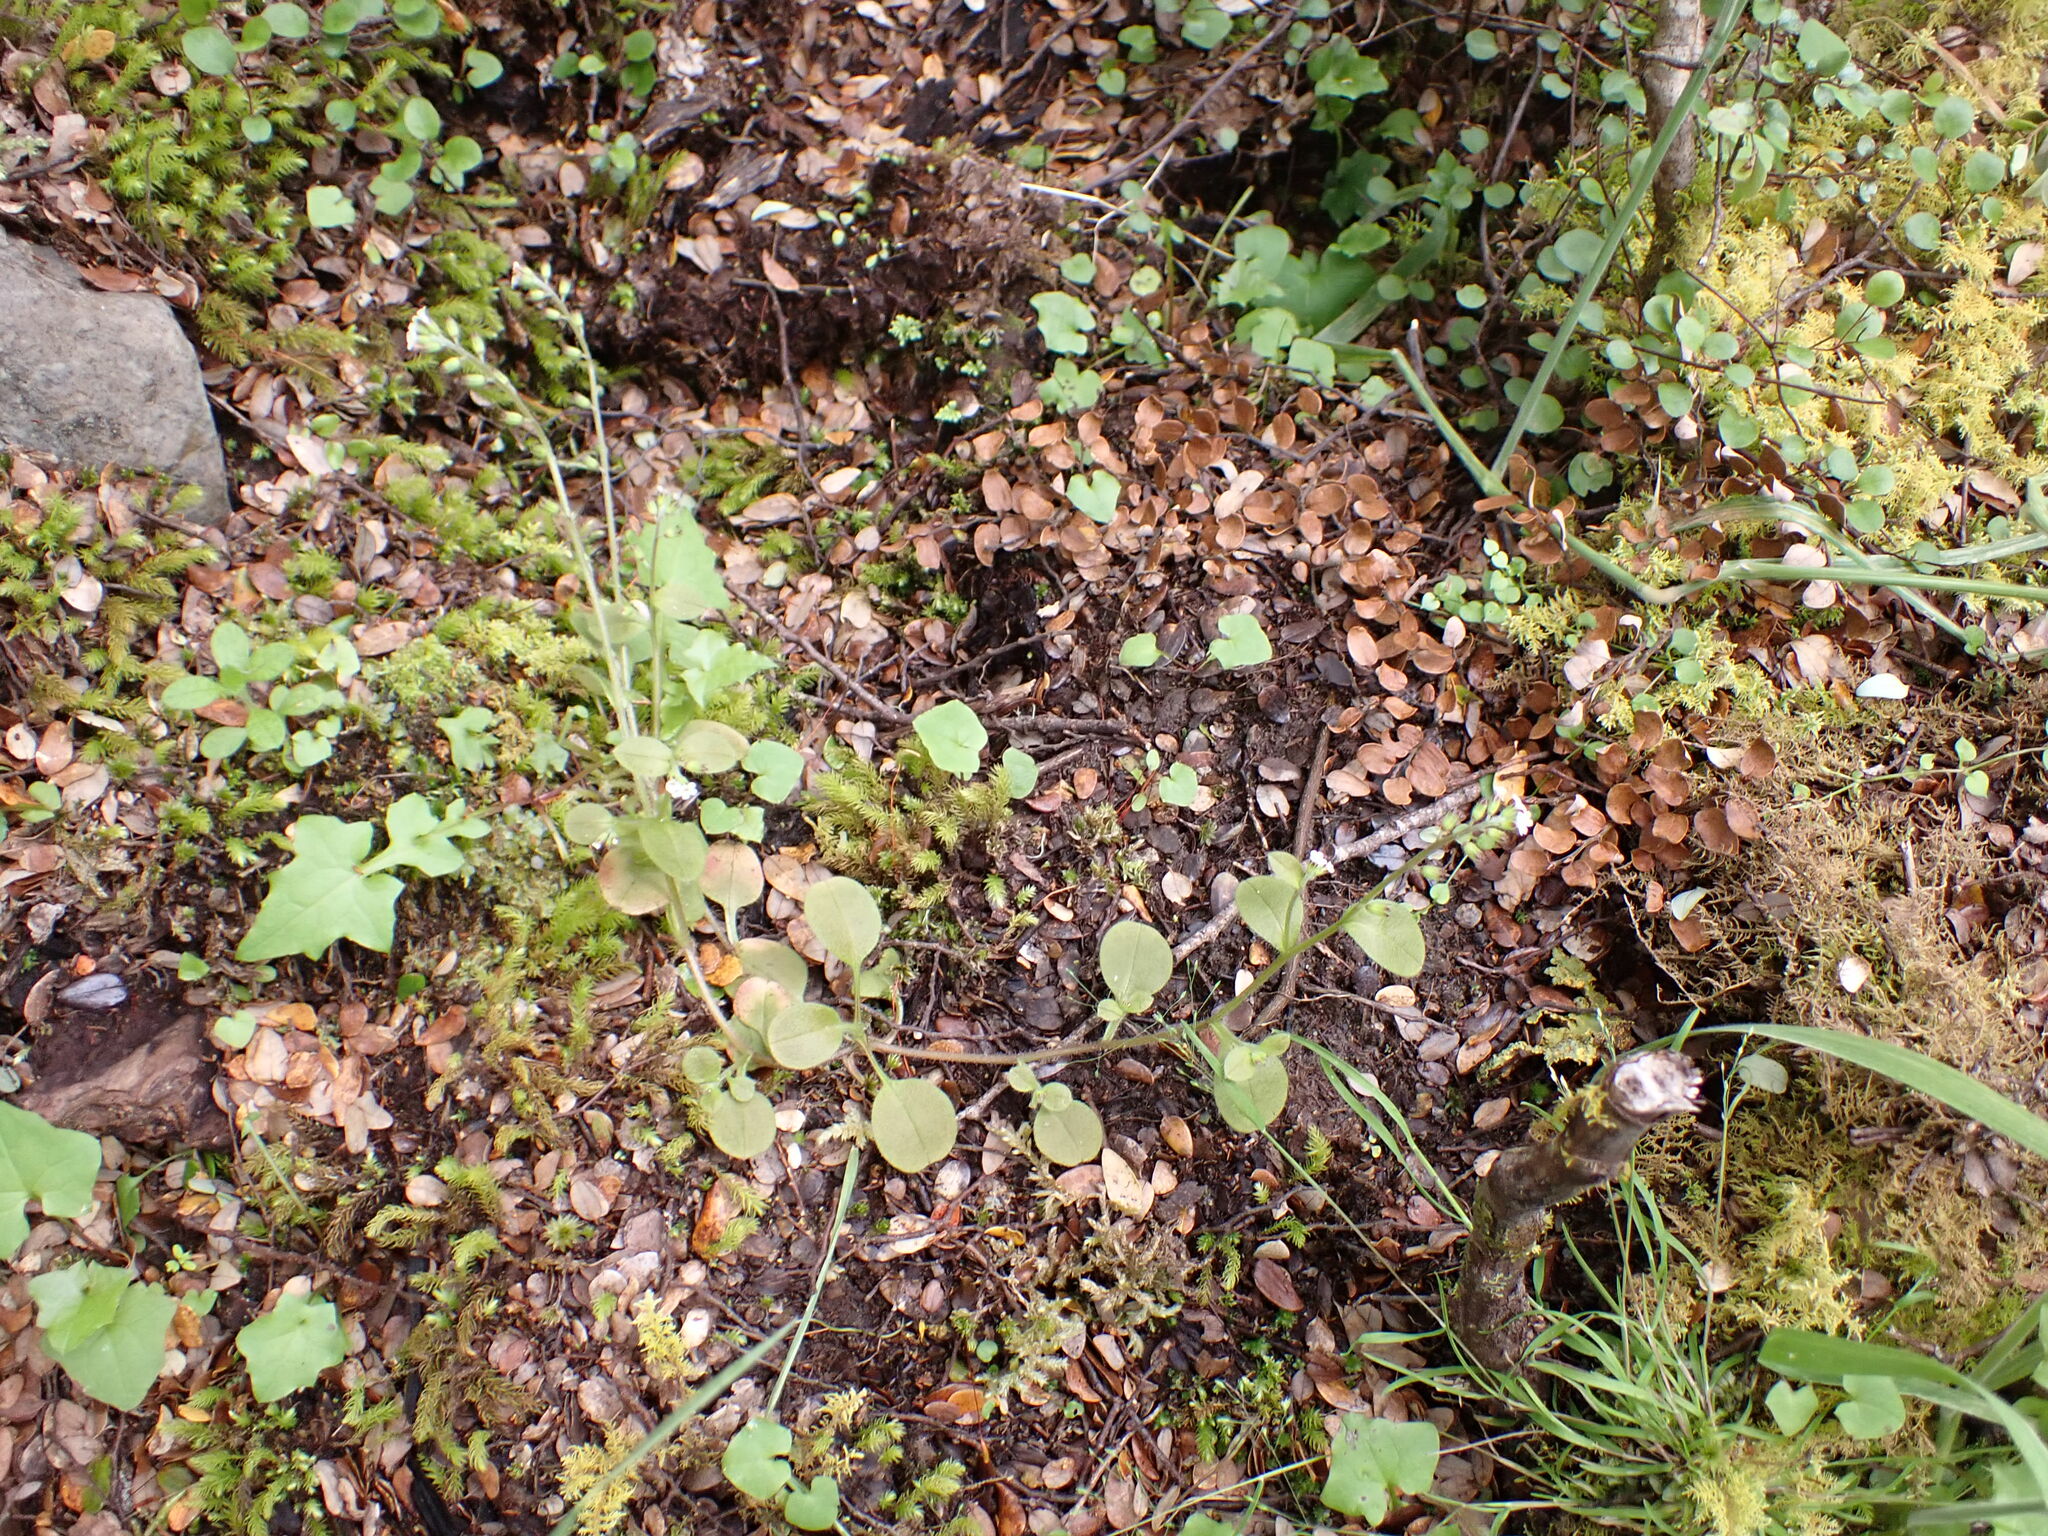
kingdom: Plantae
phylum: Tracheophyta
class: Magnoliopsida
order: Boraginales
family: Boraginaceae
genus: Myosotis
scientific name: Myosotis forsteri
